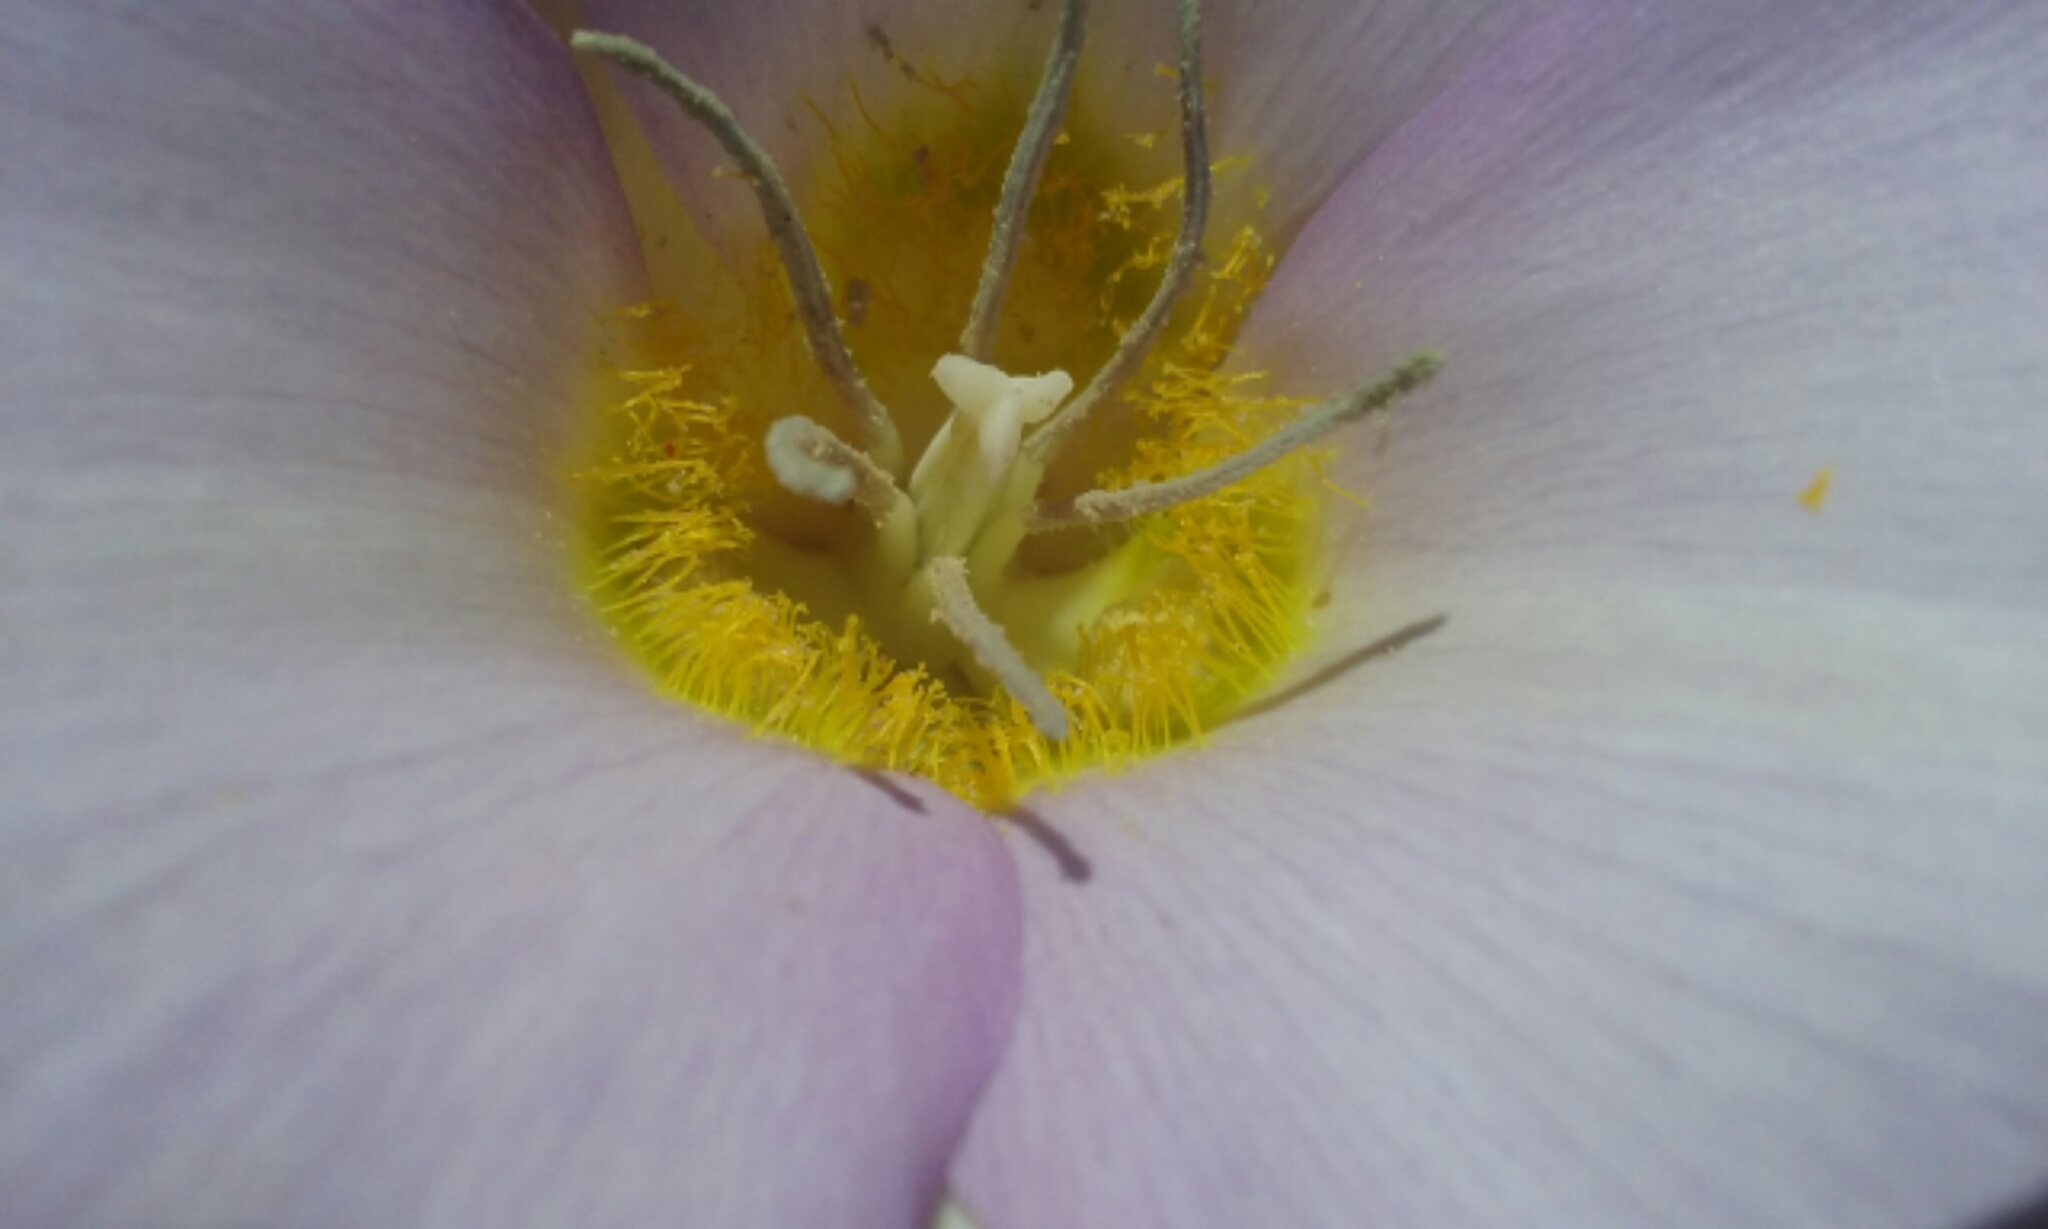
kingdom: Plantae
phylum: Tracheophyta
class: Liliopsida
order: Liliales
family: Liliaceae
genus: Calochortus
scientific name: Calochortus macrocarpus
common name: Green-band mariposa lily
